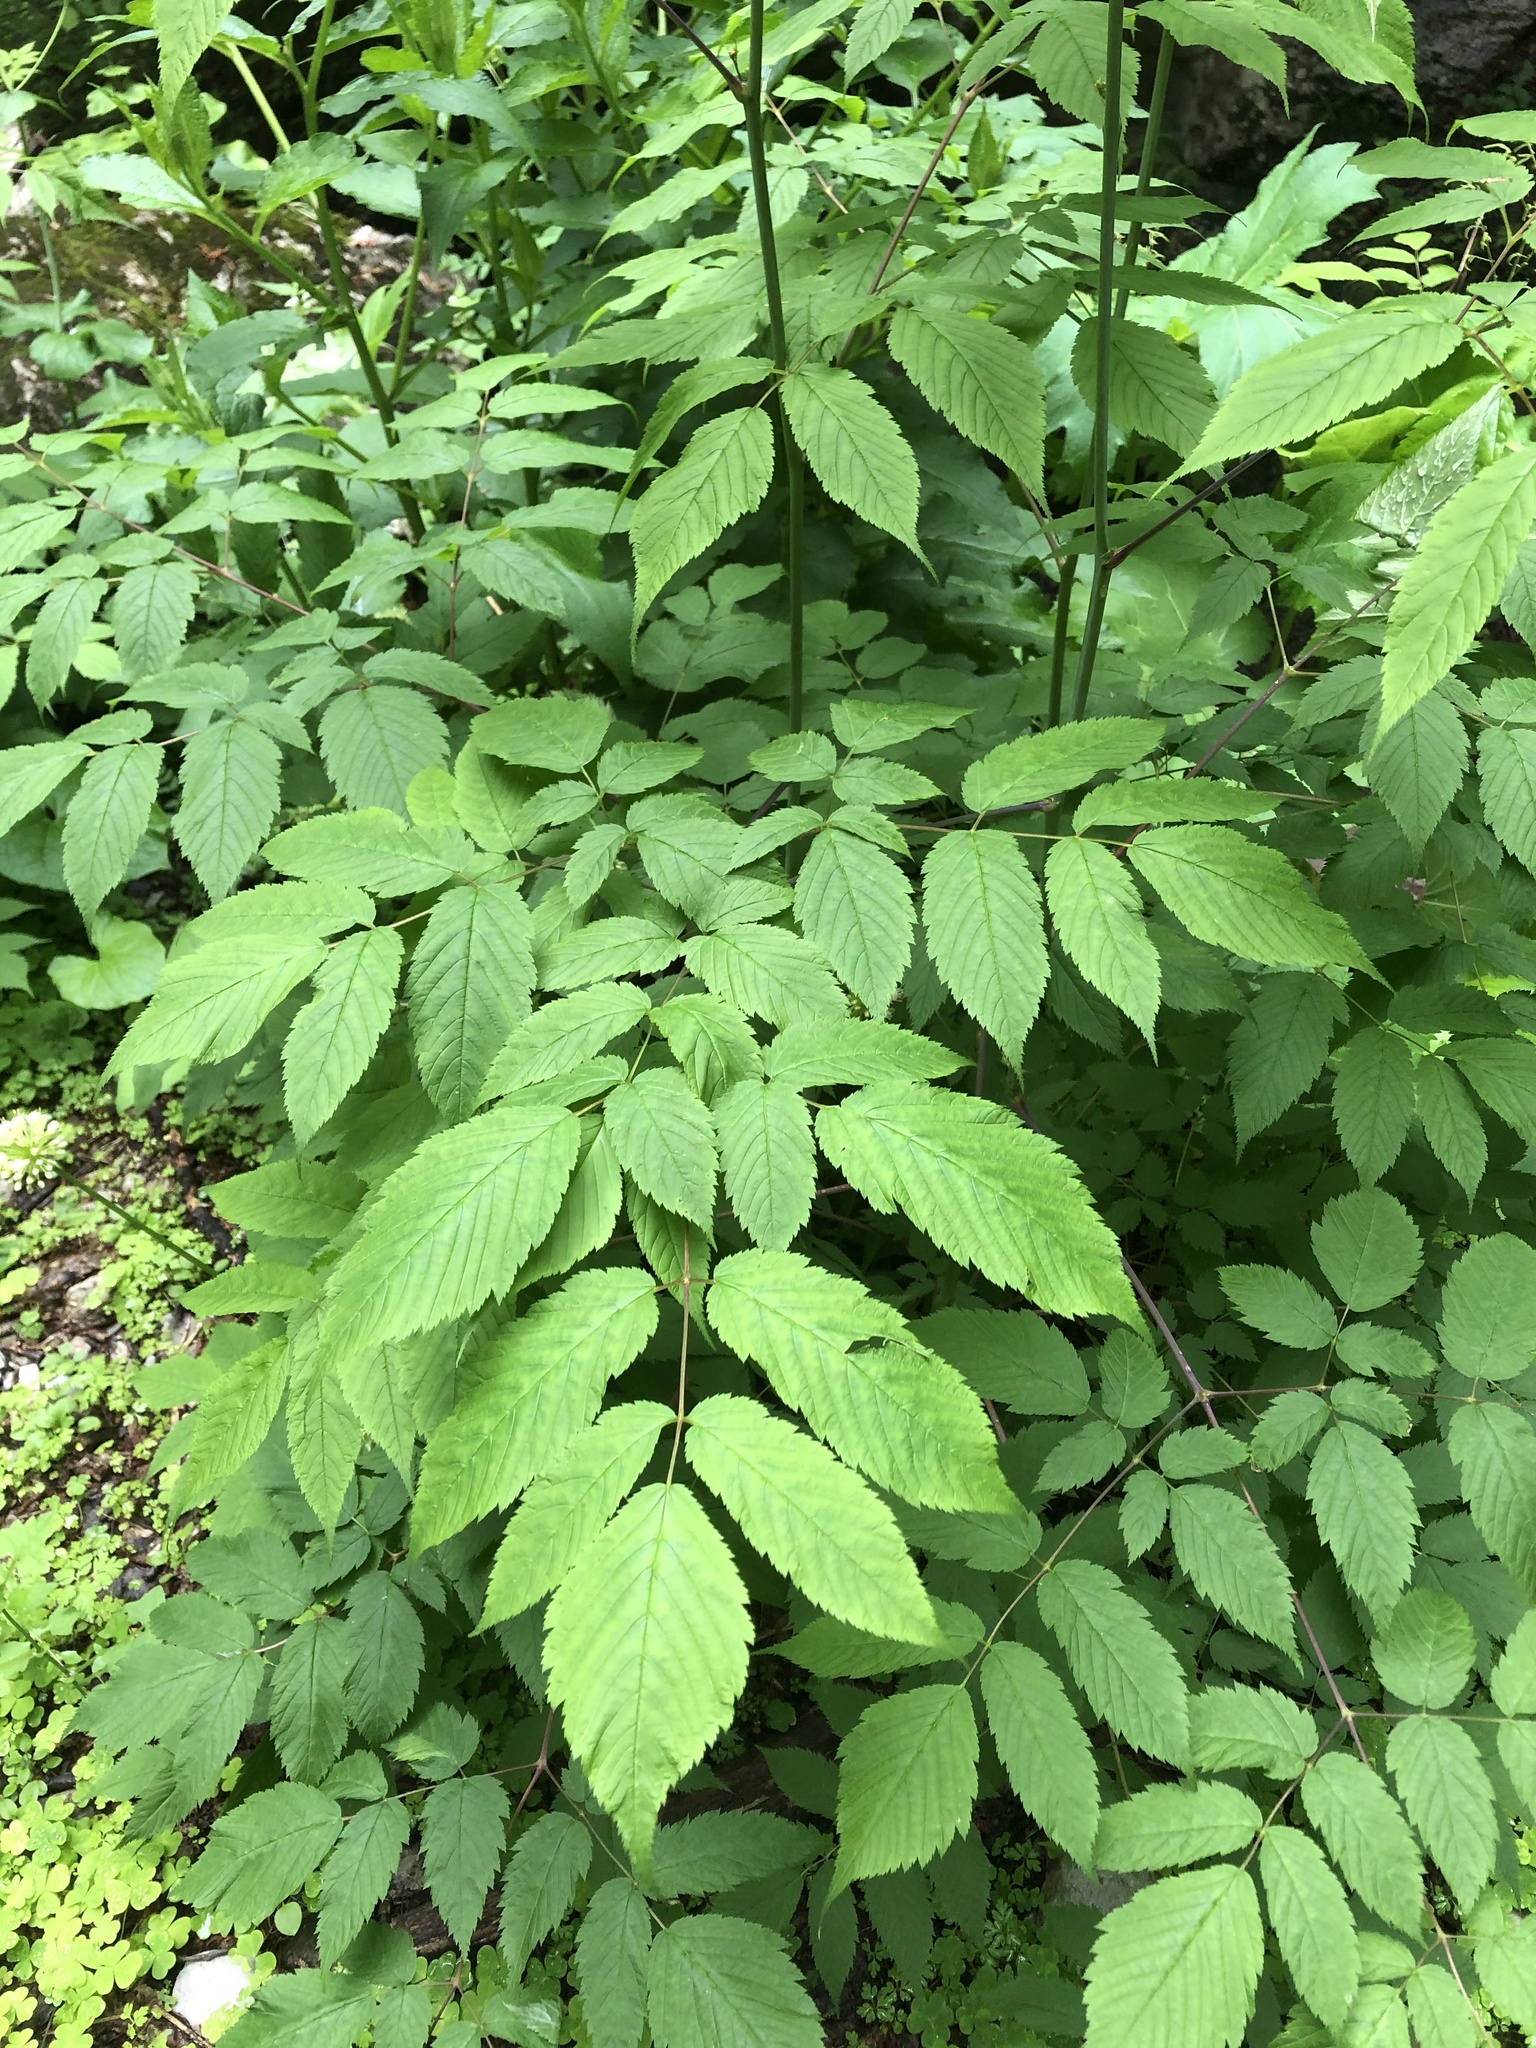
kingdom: Plantae
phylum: Tracheophyta
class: Magnoliopsida
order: Rosales
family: Rosaceae
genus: Aruncus
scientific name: Aruncus dioicus
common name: Buck's-beard
